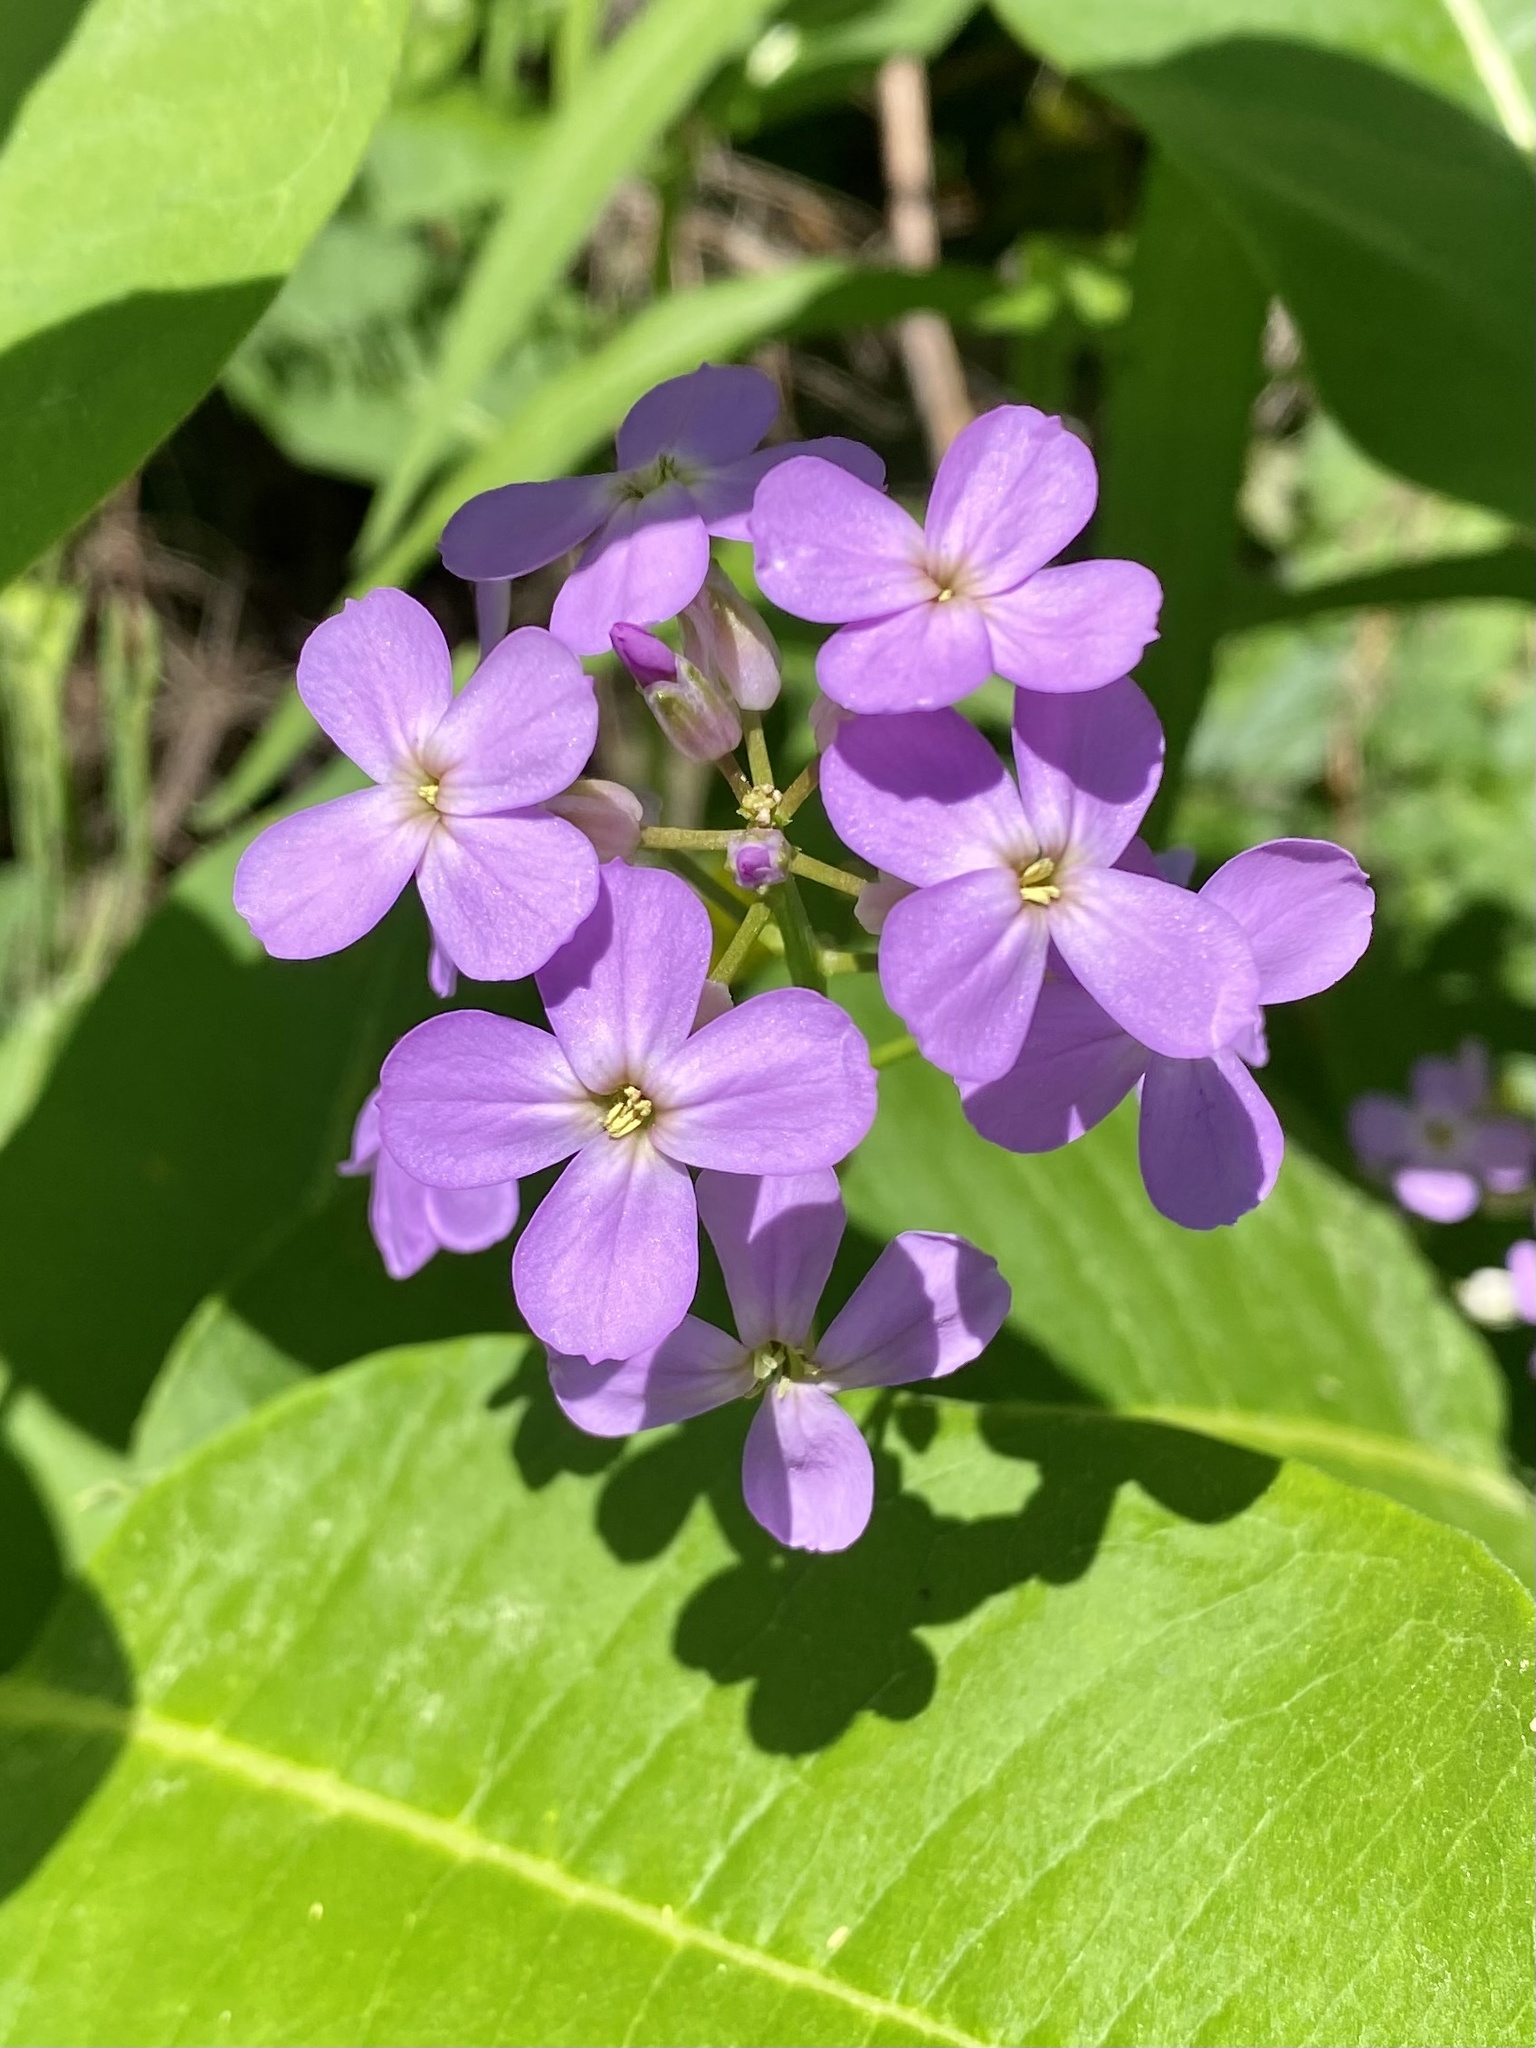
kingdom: Plantae
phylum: Tracheophyta
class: Magnoliopsida
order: Brassicales
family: Brassicaceae
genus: Hesperis
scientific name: Hesperis matronalis
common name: Dame's-violet
